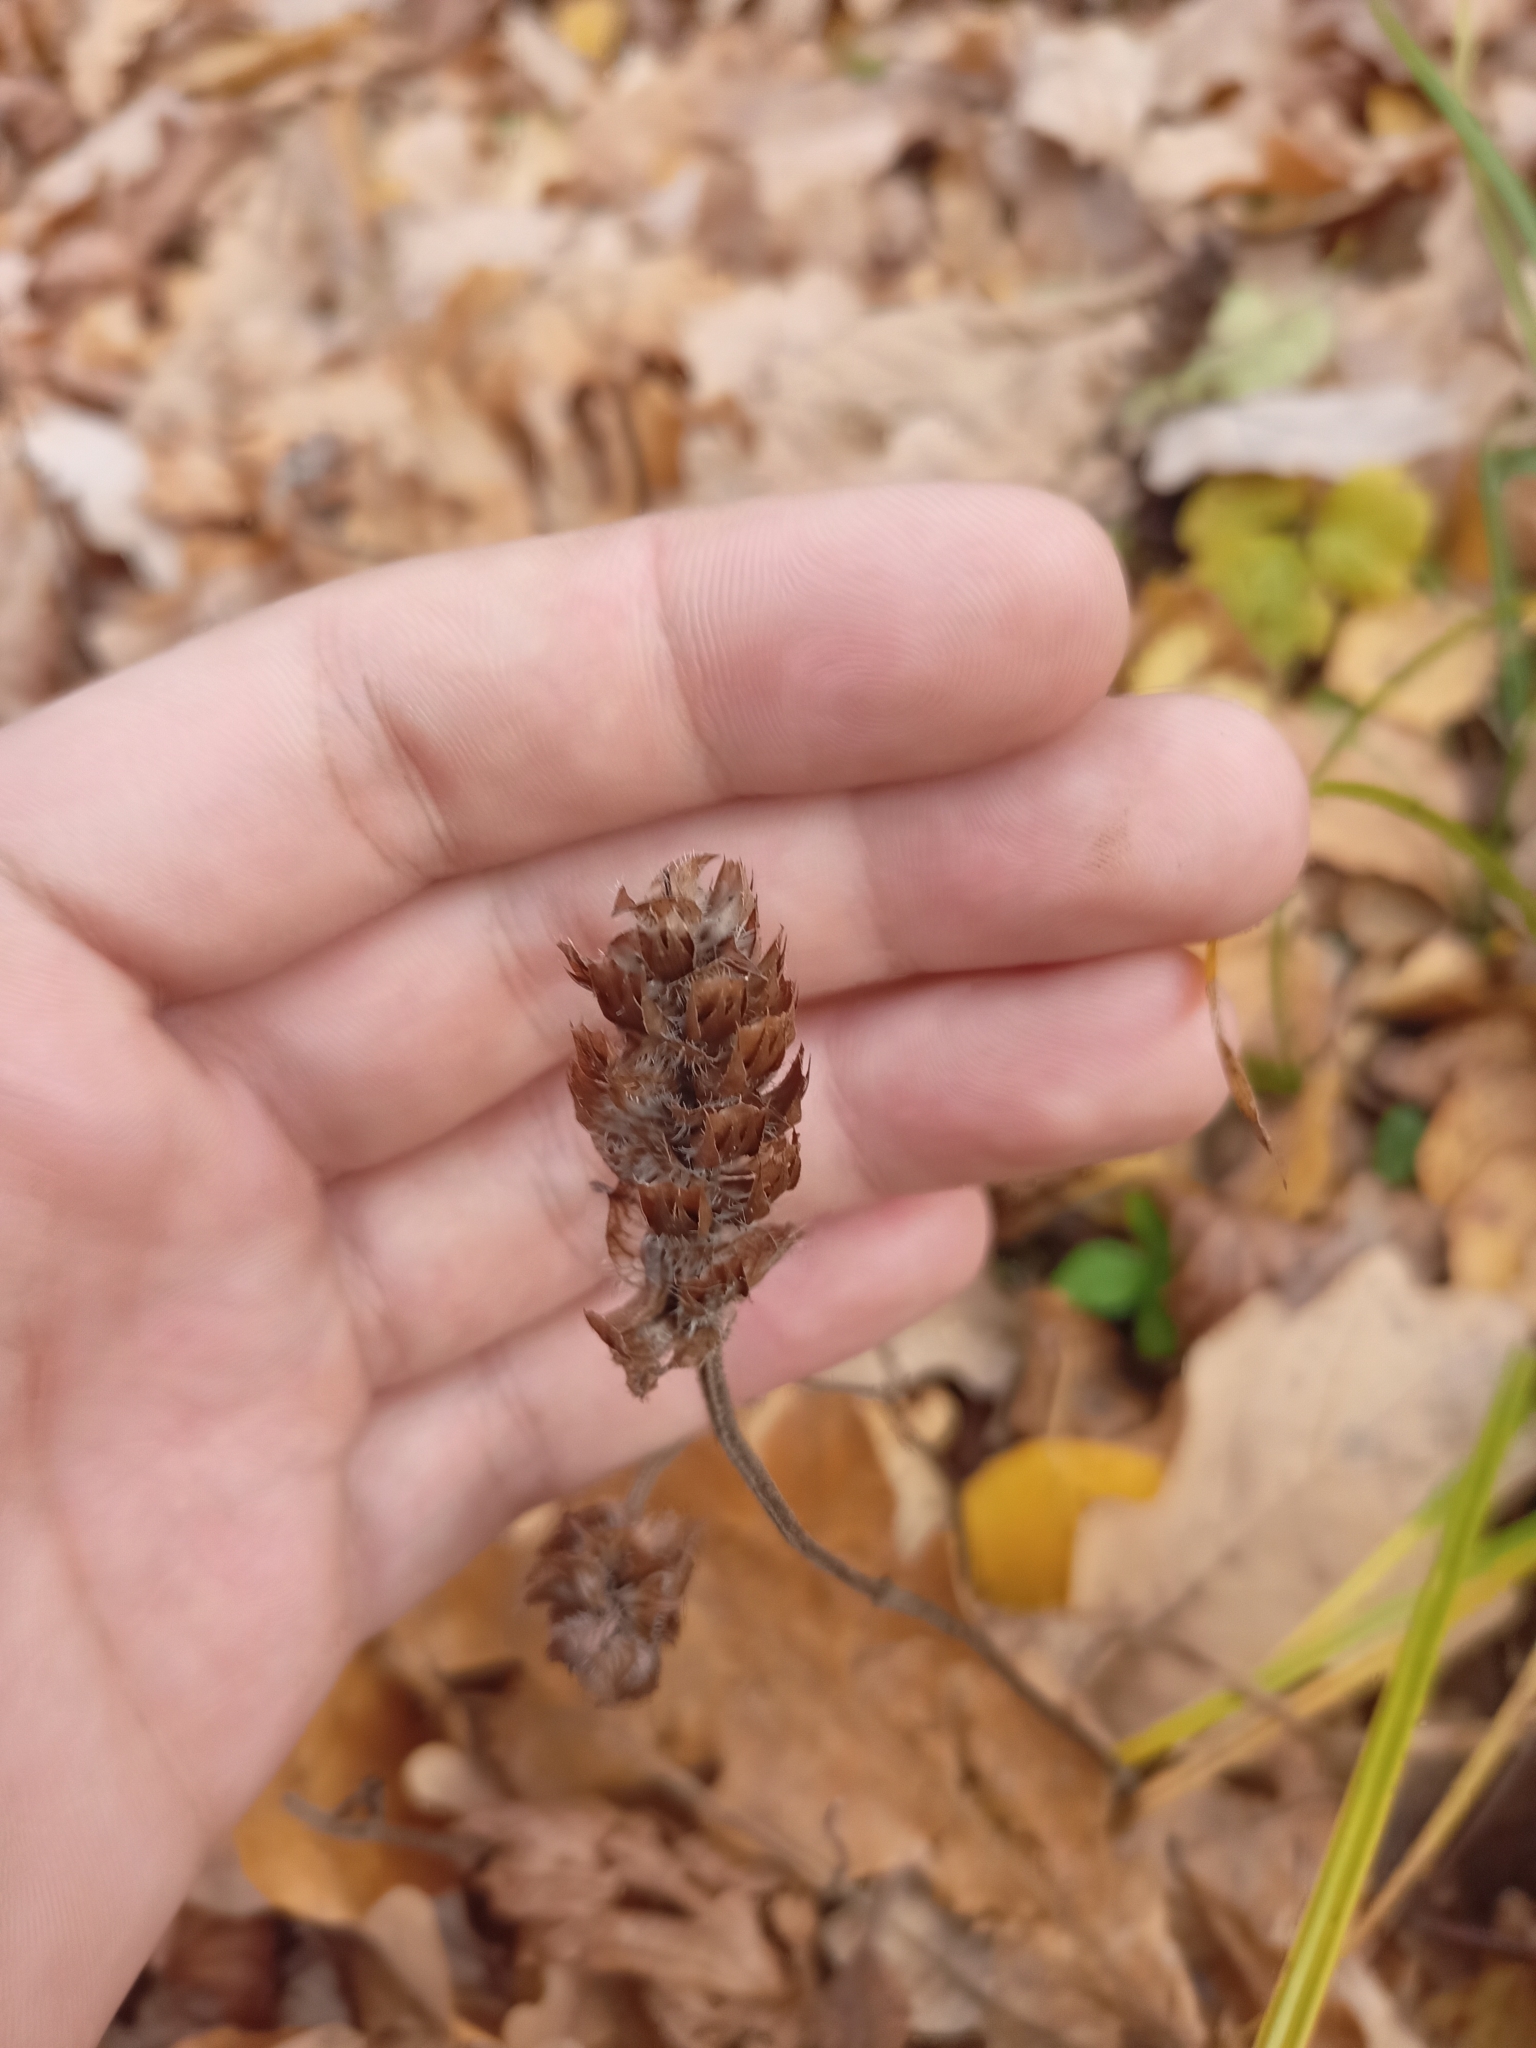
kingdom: Plantae
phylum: Tracheophyta
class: Magnoliopsida
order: Lamiales
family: Lamiaceae
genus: Prunella
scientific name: Prunella vulgaris
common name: Heal-all
